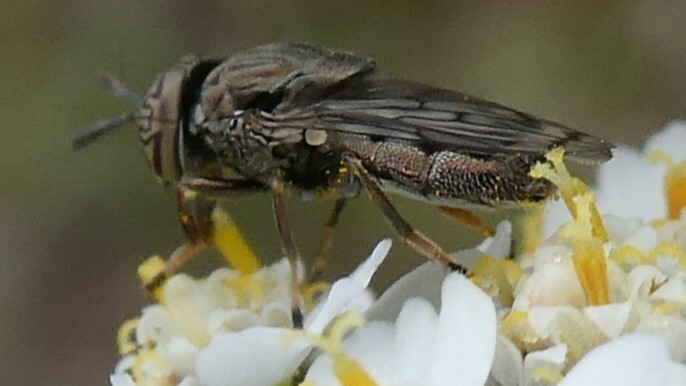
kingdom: Animalia
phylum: Arthropoda
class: Insecta
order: Diptera
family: Syrphidae
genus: Orthonevra
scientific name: Orthonevra nitida
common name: Wavy mucksucker
